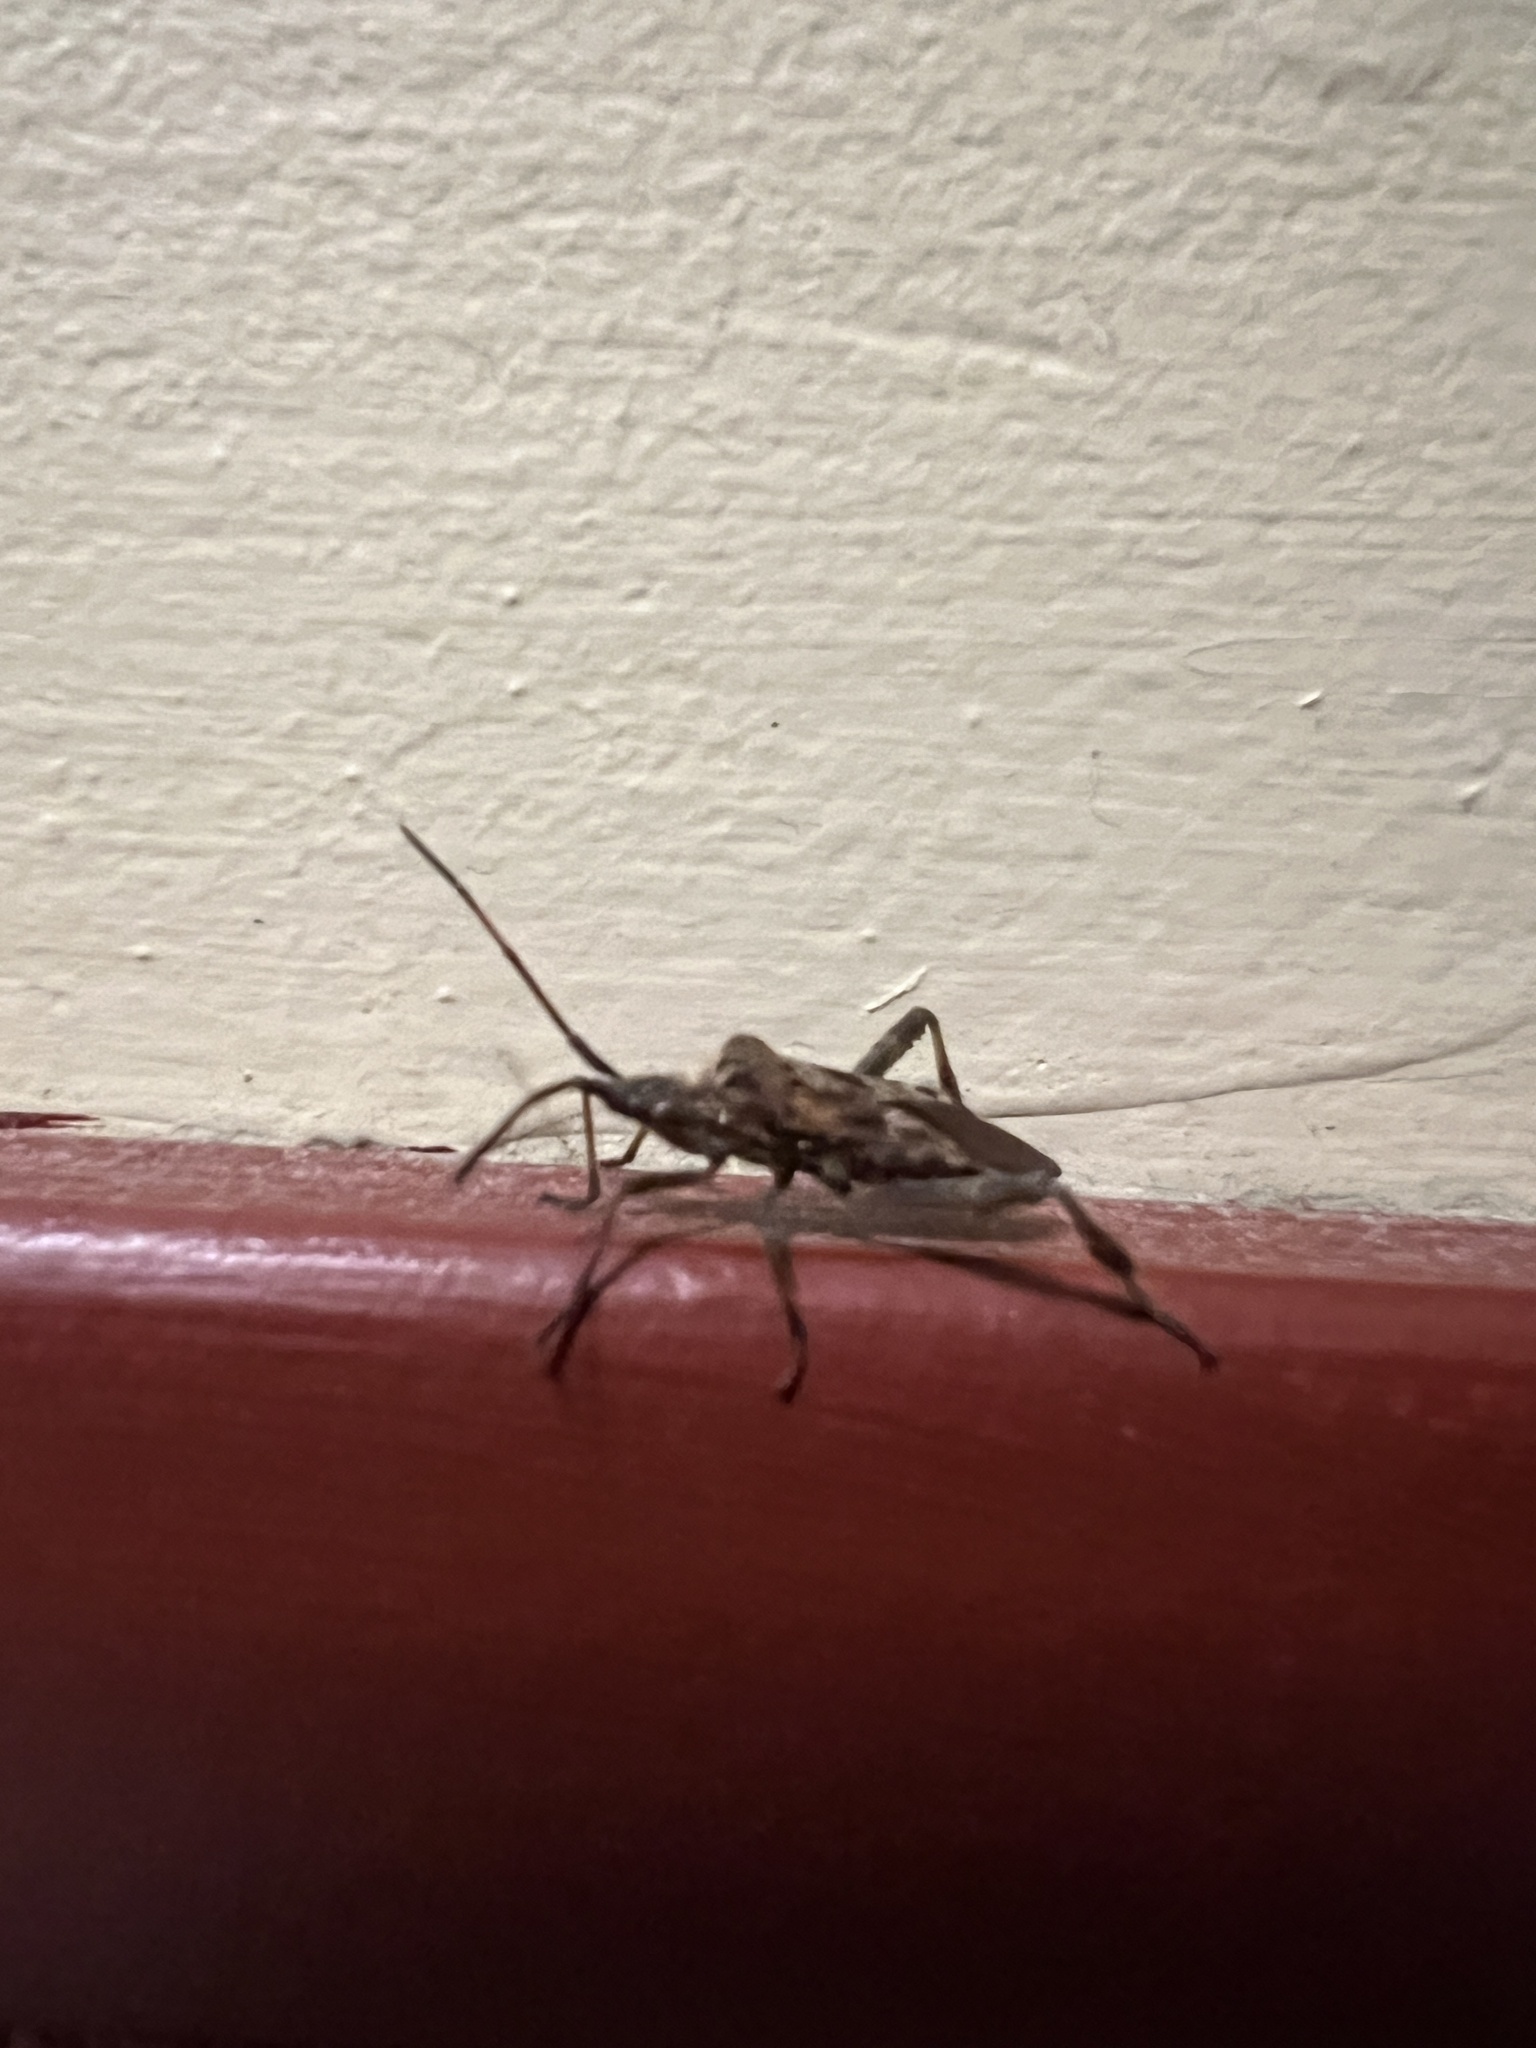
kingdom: Animalia
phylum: Arthropoda
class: Insecta
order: Hemiptera
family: Coreidae
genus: Leptoglossus
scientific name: Leptoglossus occidentalis
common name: Western conifer-seed bug
